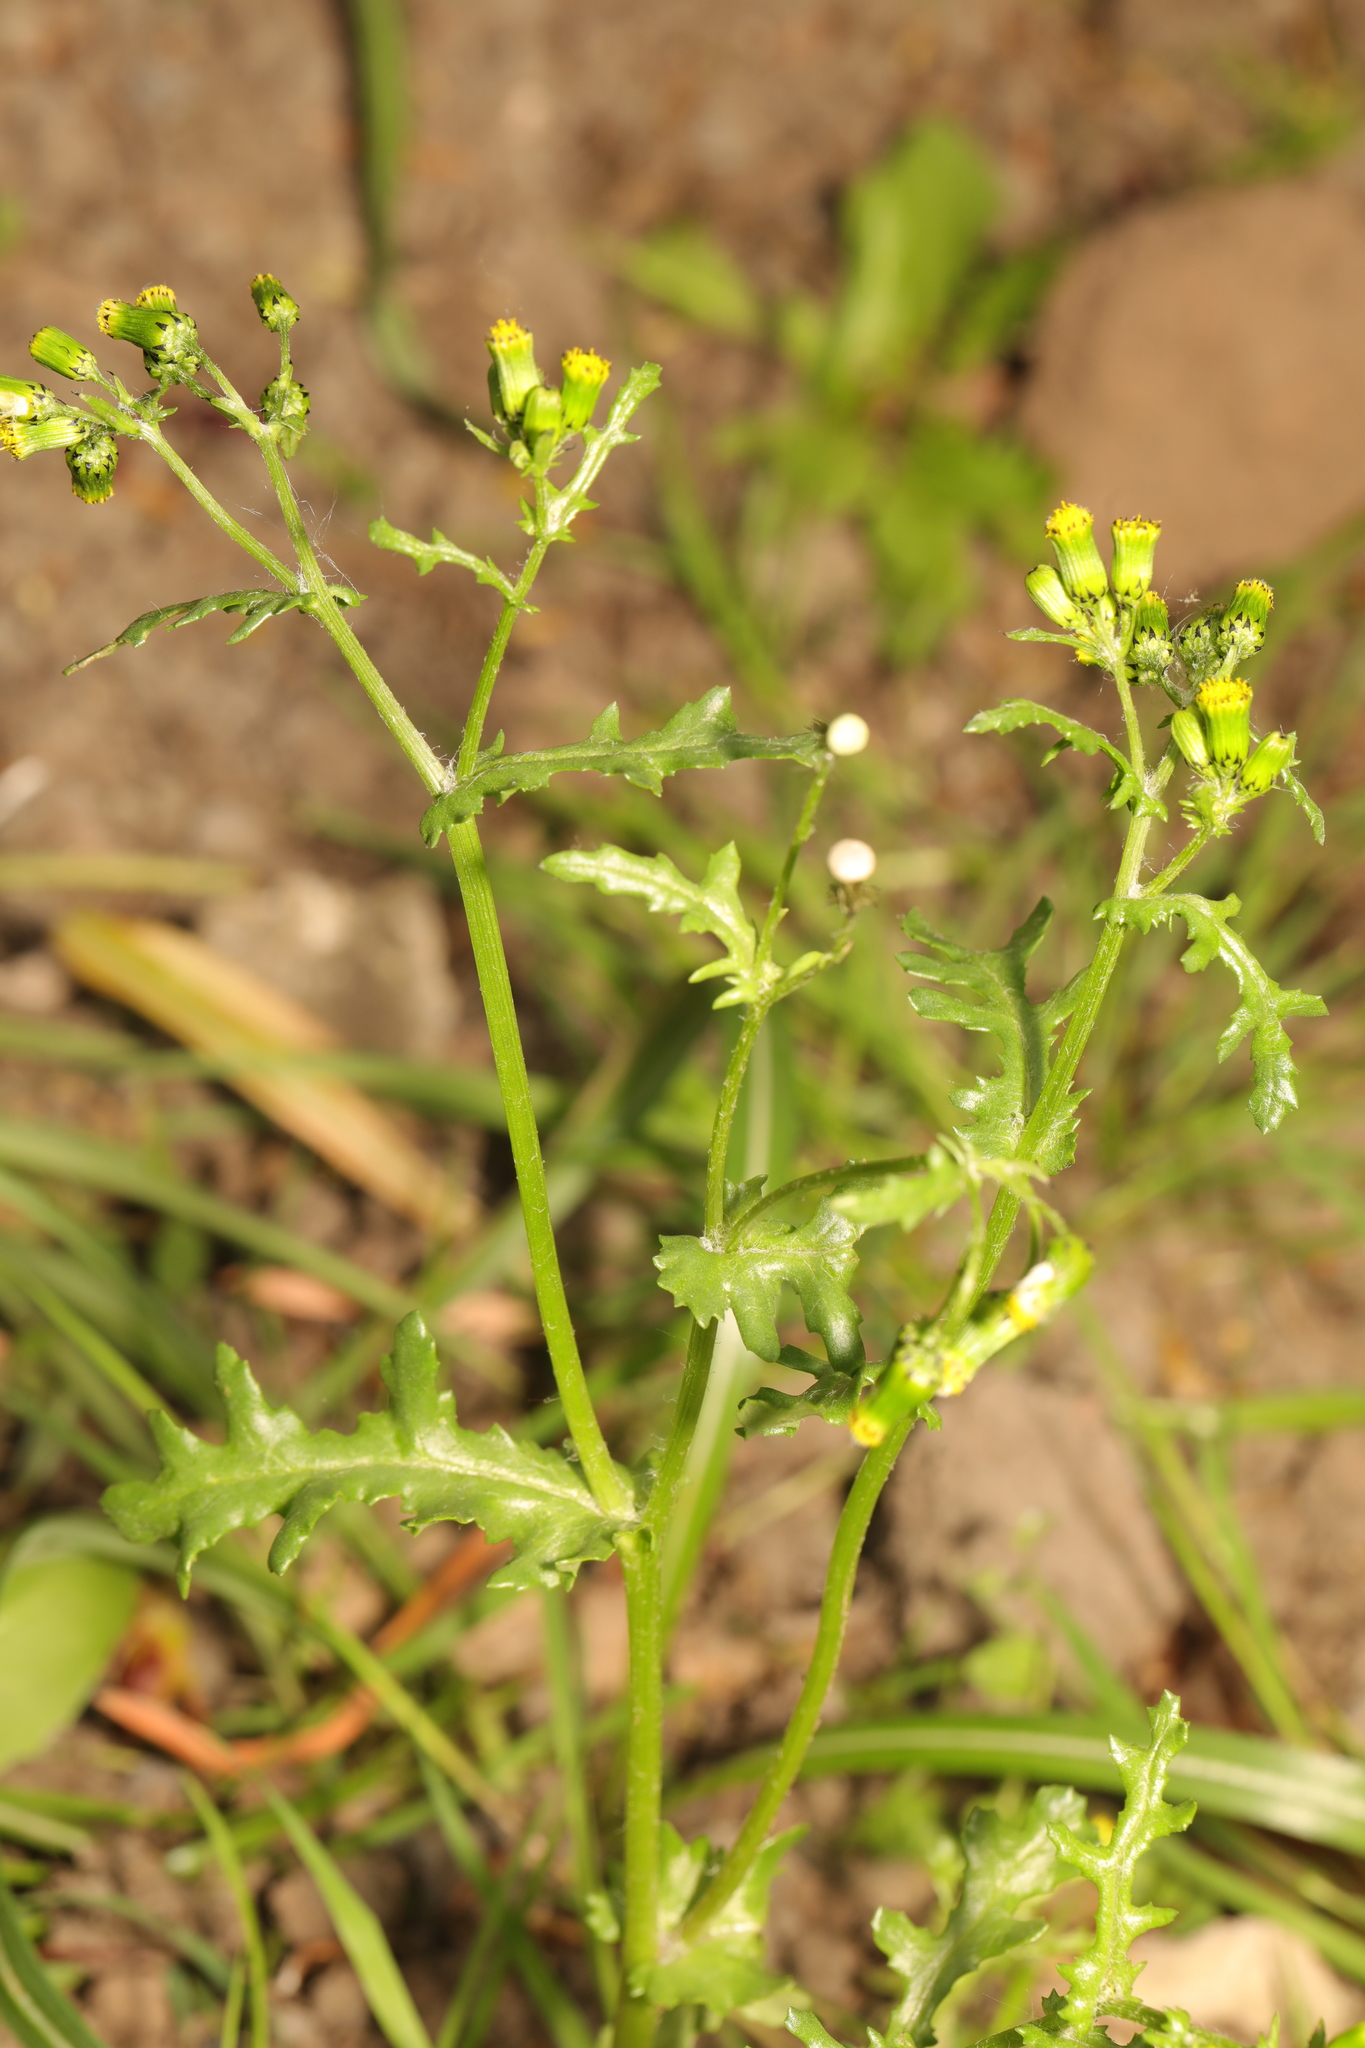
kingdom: Plantae
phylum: Tracheophyta
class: Magnoliopsida
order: Asterales
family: Asteraceae
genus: Senecio
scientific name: Senecio vulgaris
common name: Old-man-in-the-spring
